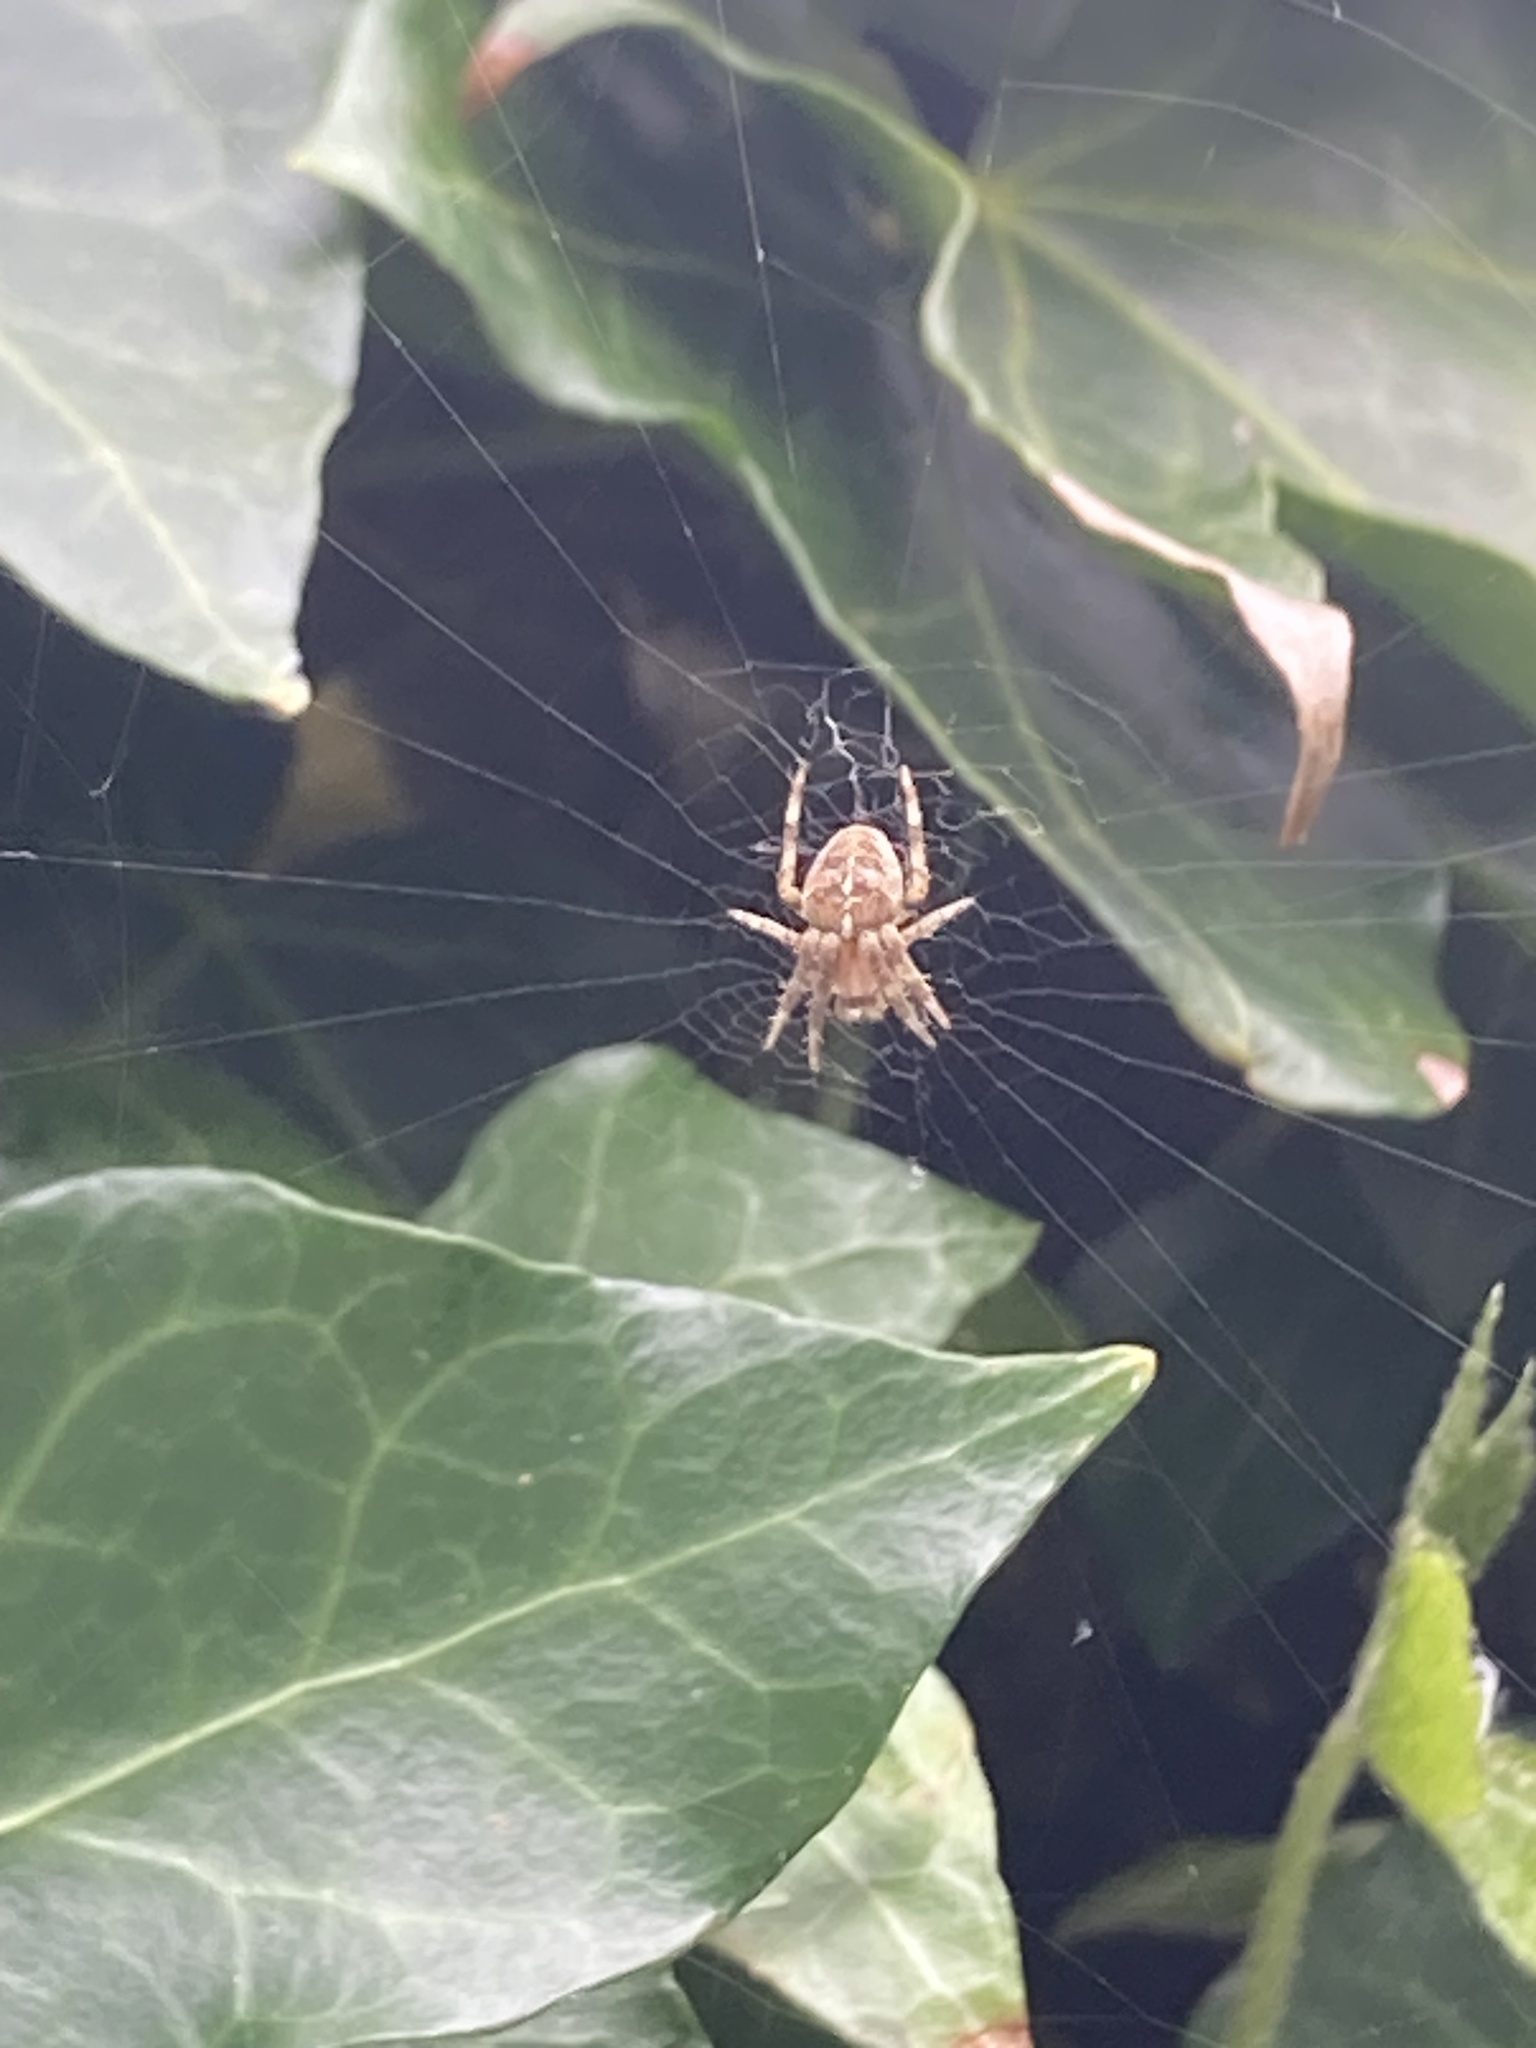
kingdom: Animalia
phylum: Arthropoda
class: Arachnida
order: Araneae
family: Araneidae
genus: Araneus
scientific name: Araneus diadematus
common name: Cross orbweaver
